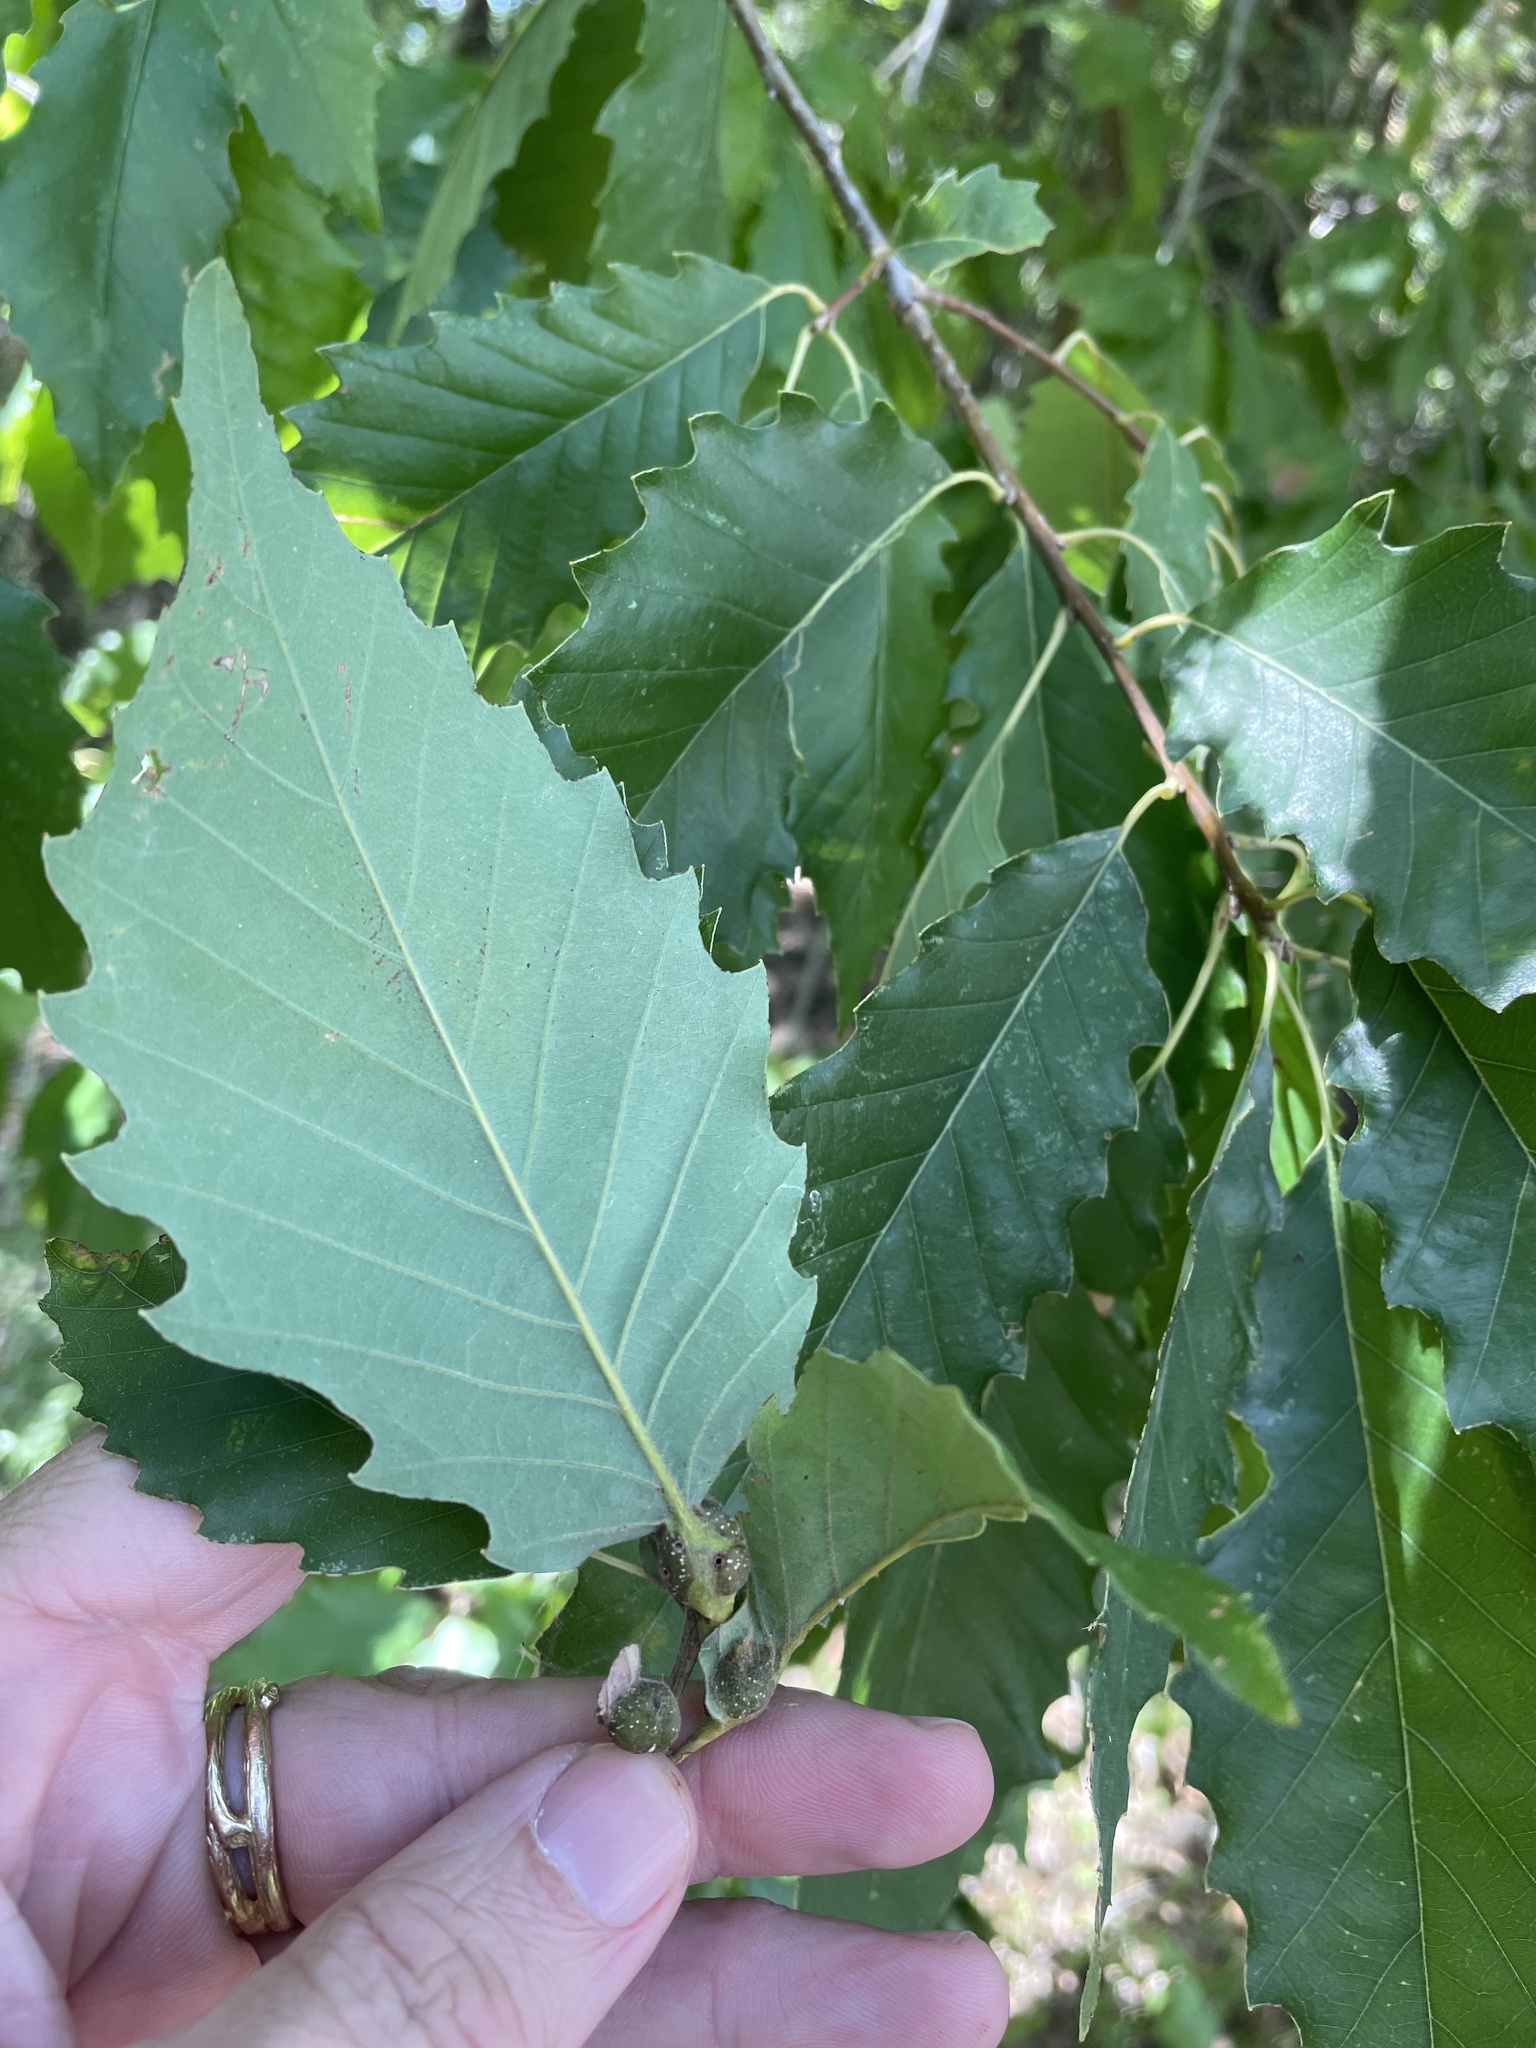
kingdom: Animalia
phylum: Arthropoda
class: Insecta
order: Hymenoptera
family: Cynipidae
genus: Andricus
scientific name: Andricus
